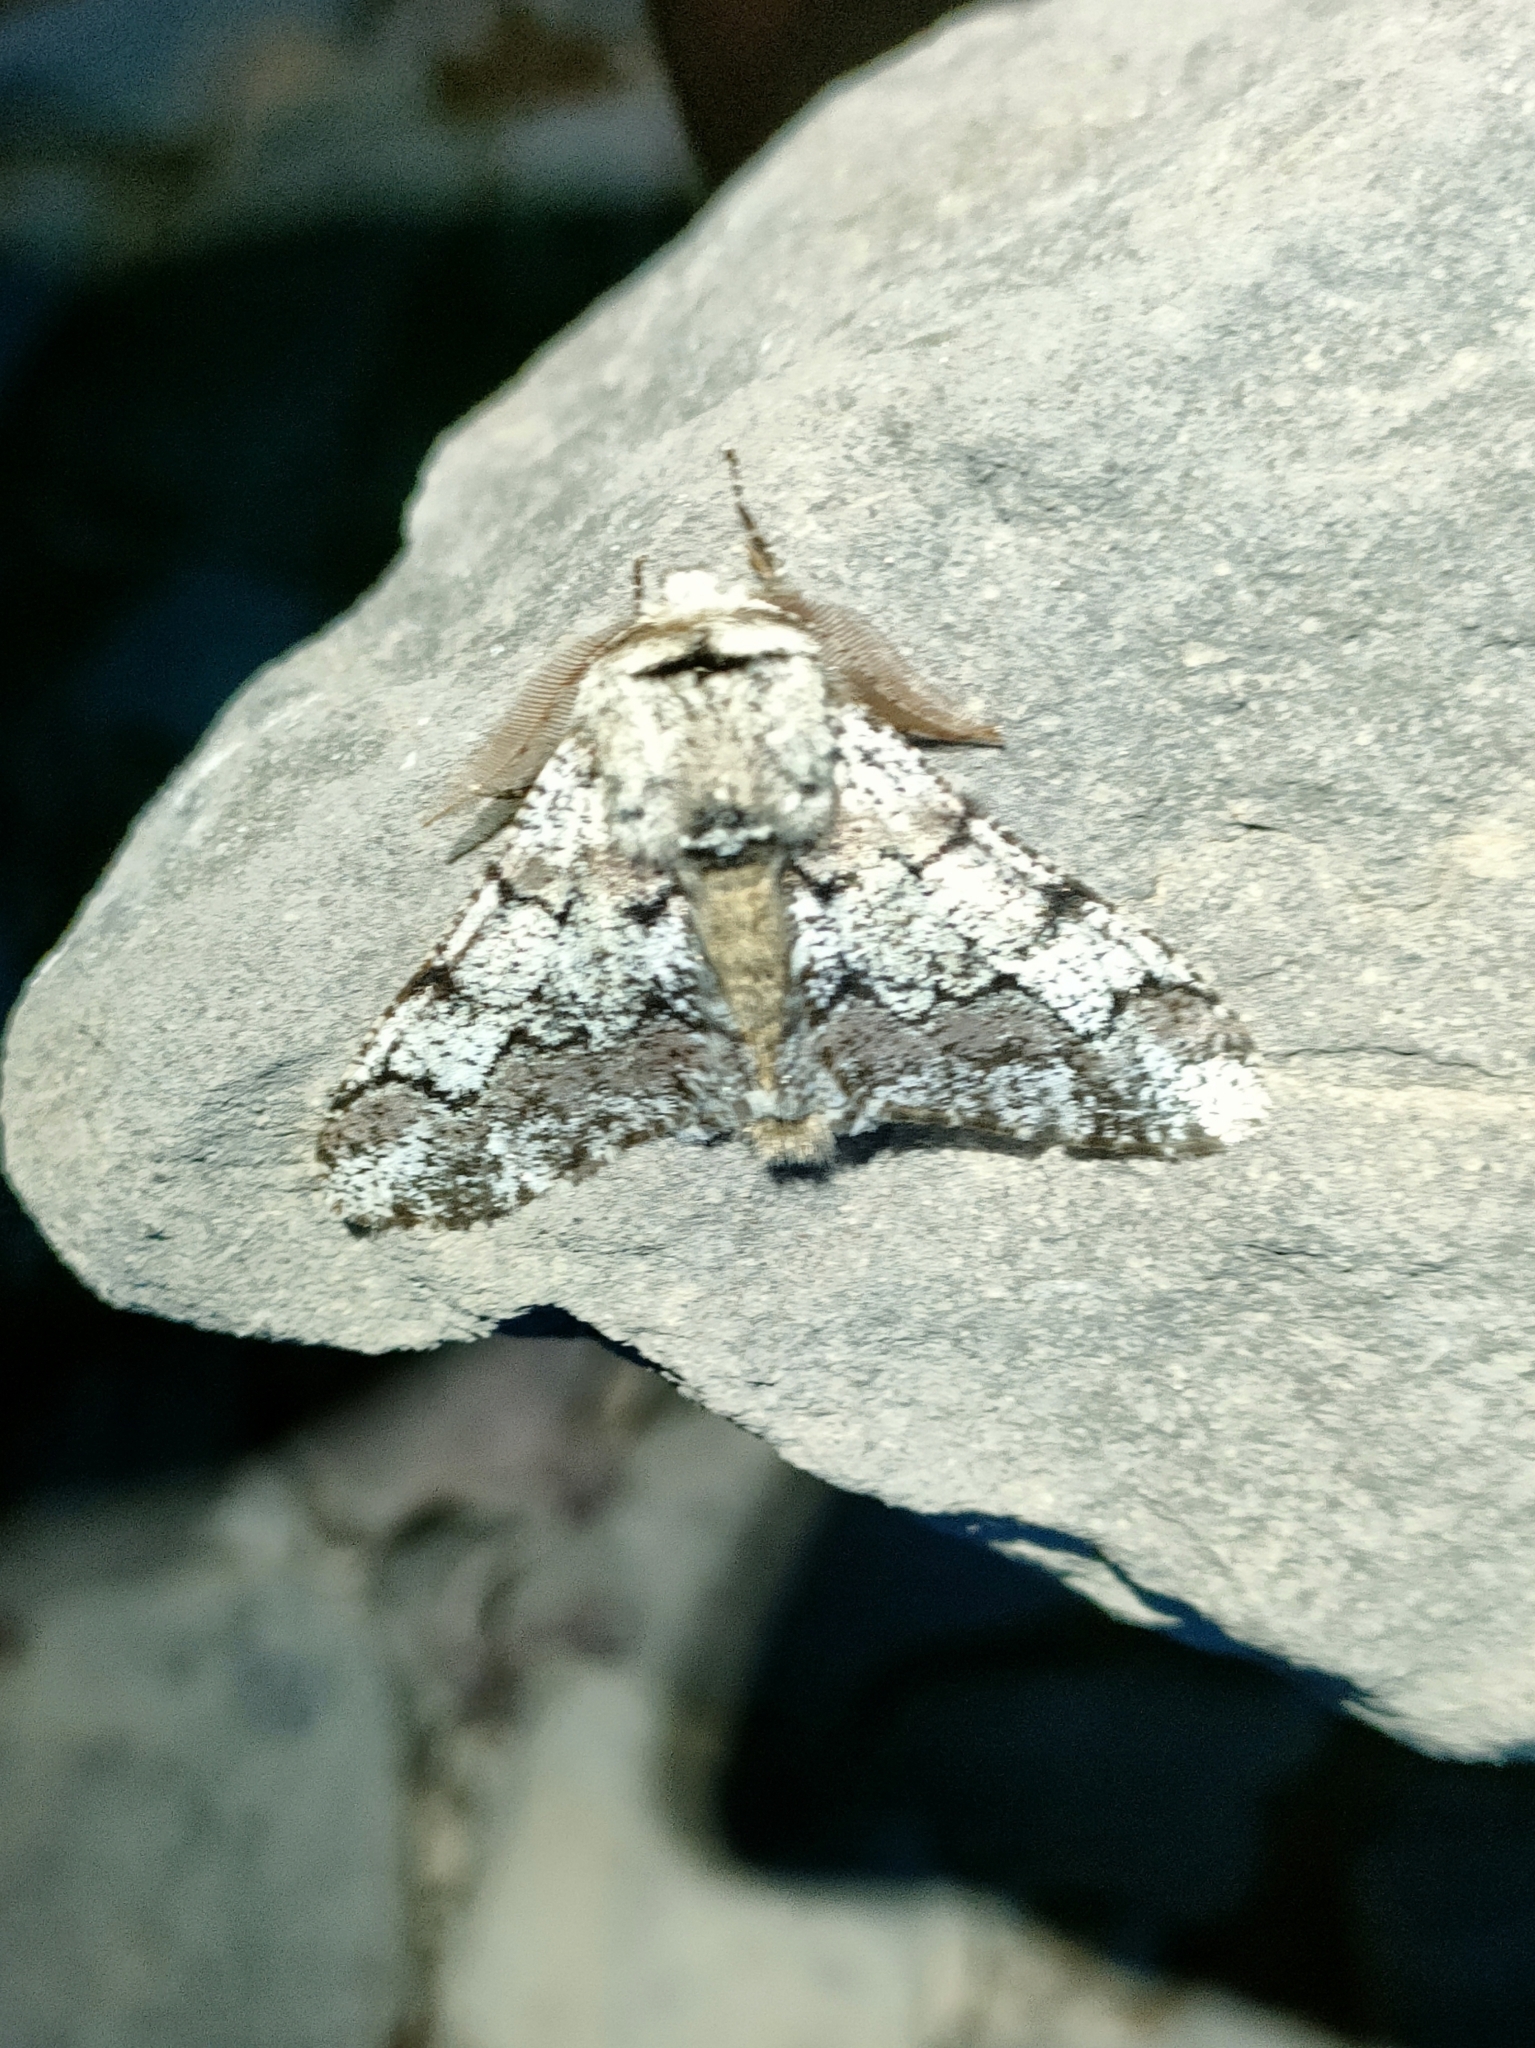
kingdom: Animalia
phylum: Arthropoda
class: Insecta
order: Lepidoptera
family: Geometridae
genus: Biston
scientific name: Biston strataria
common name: Oak beauty
